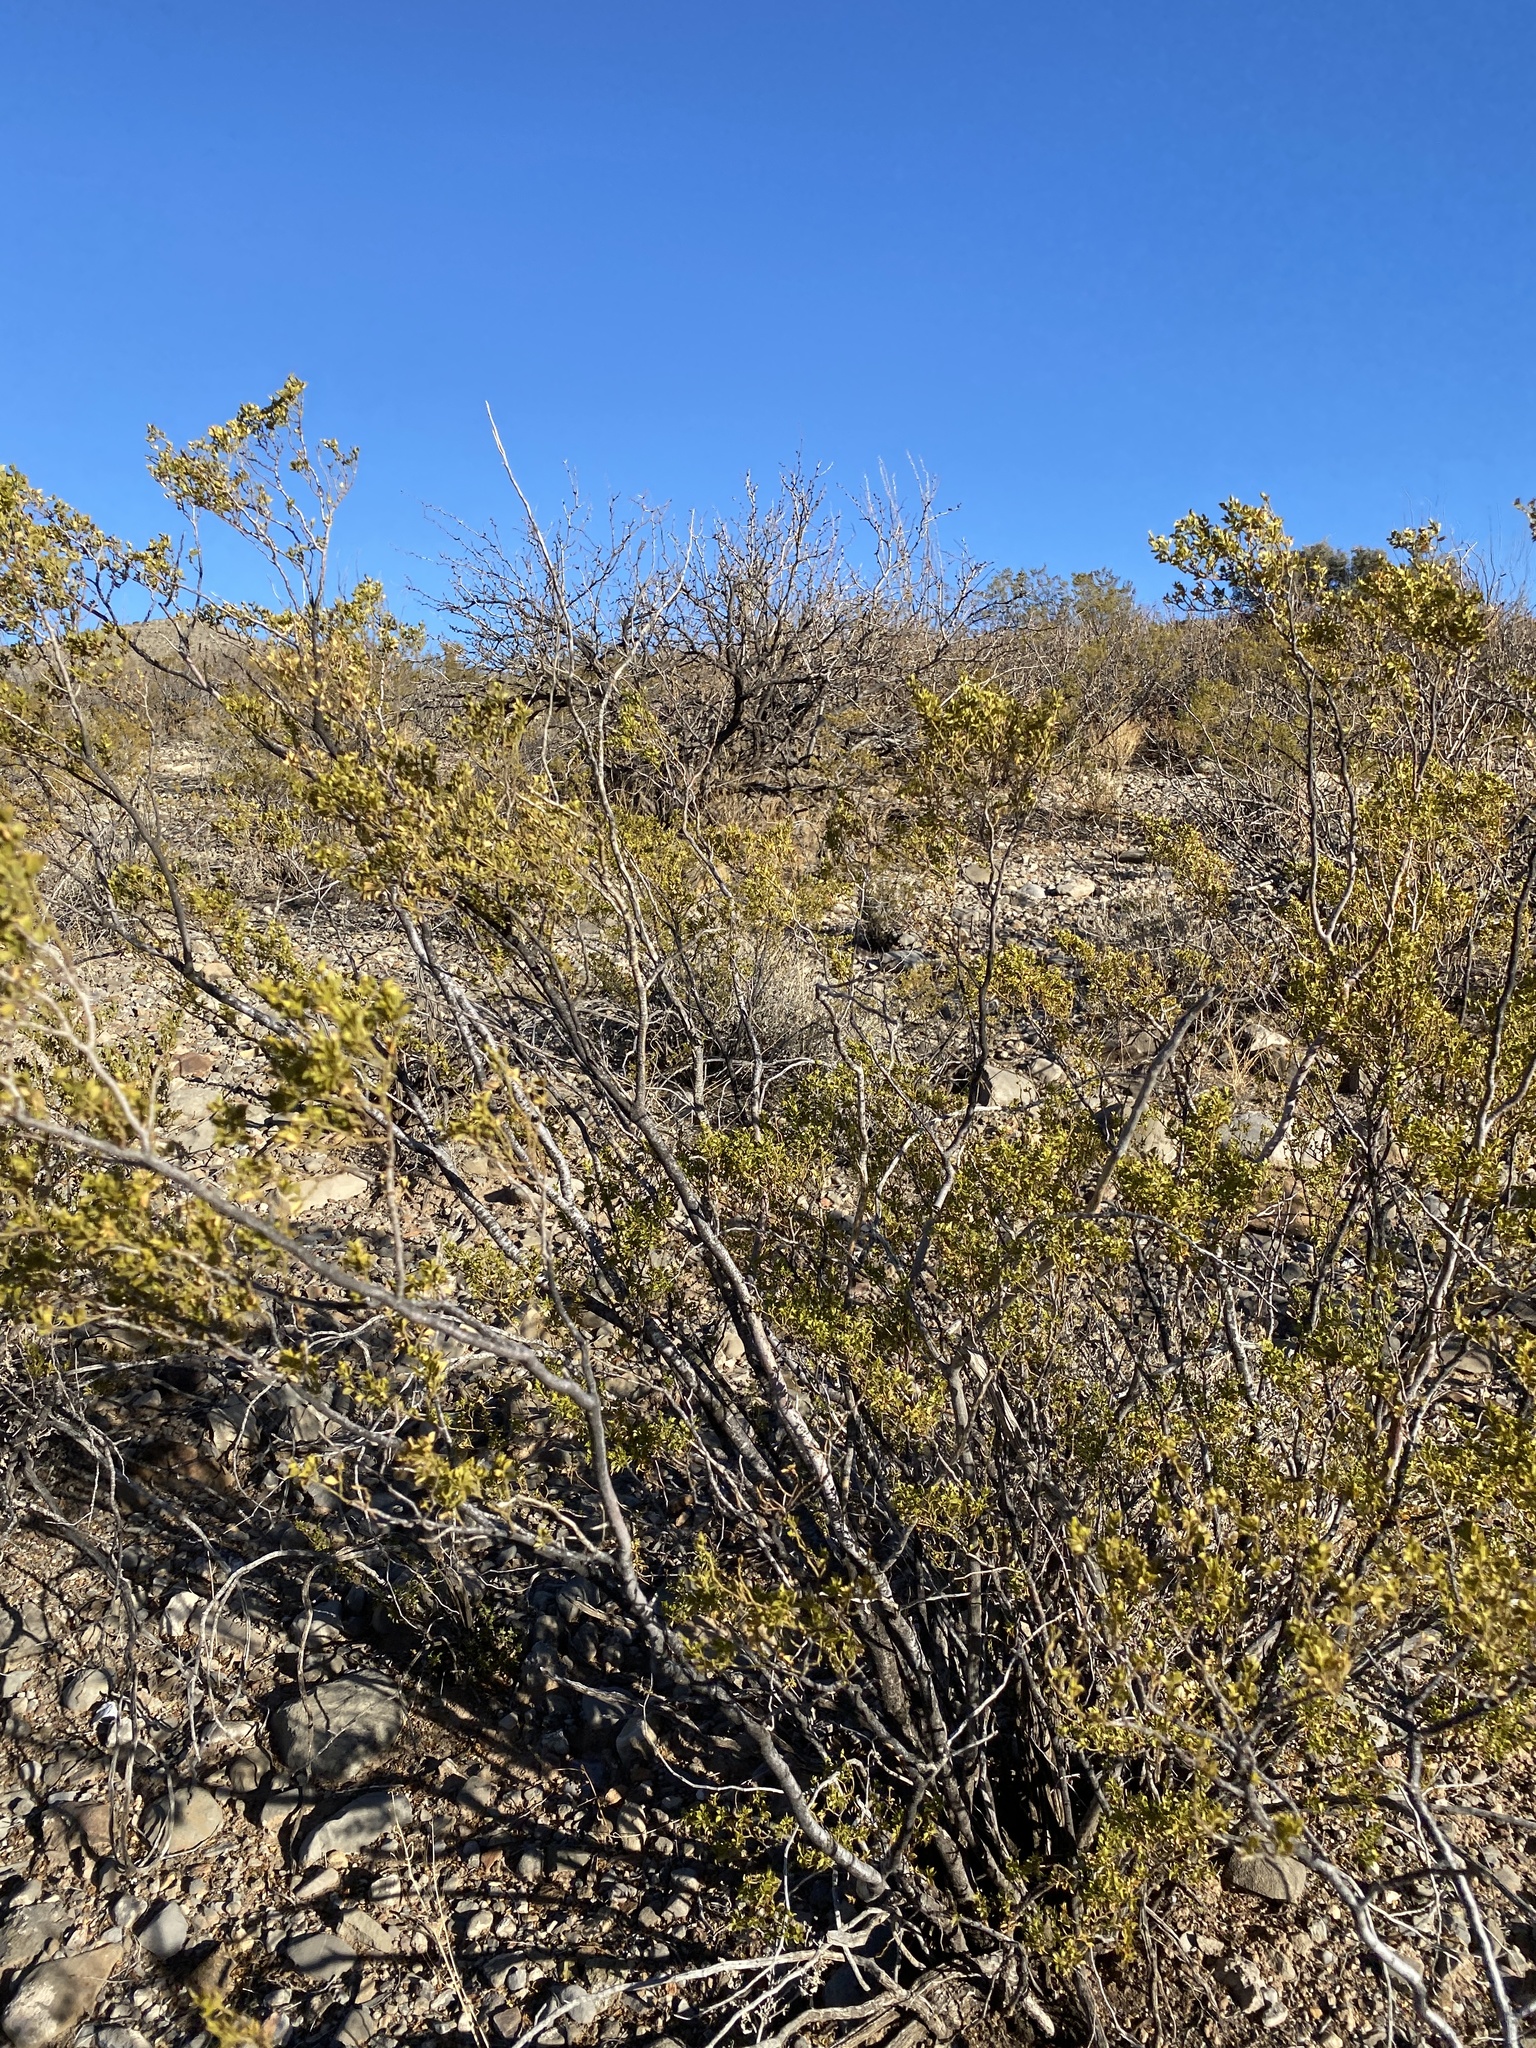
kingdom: Plantae
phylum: Tracheophyta
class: Magnoliopsida
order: Zygophyllales
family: Zygophyllaceae
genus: Larrea
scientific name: Larrea tridentata
